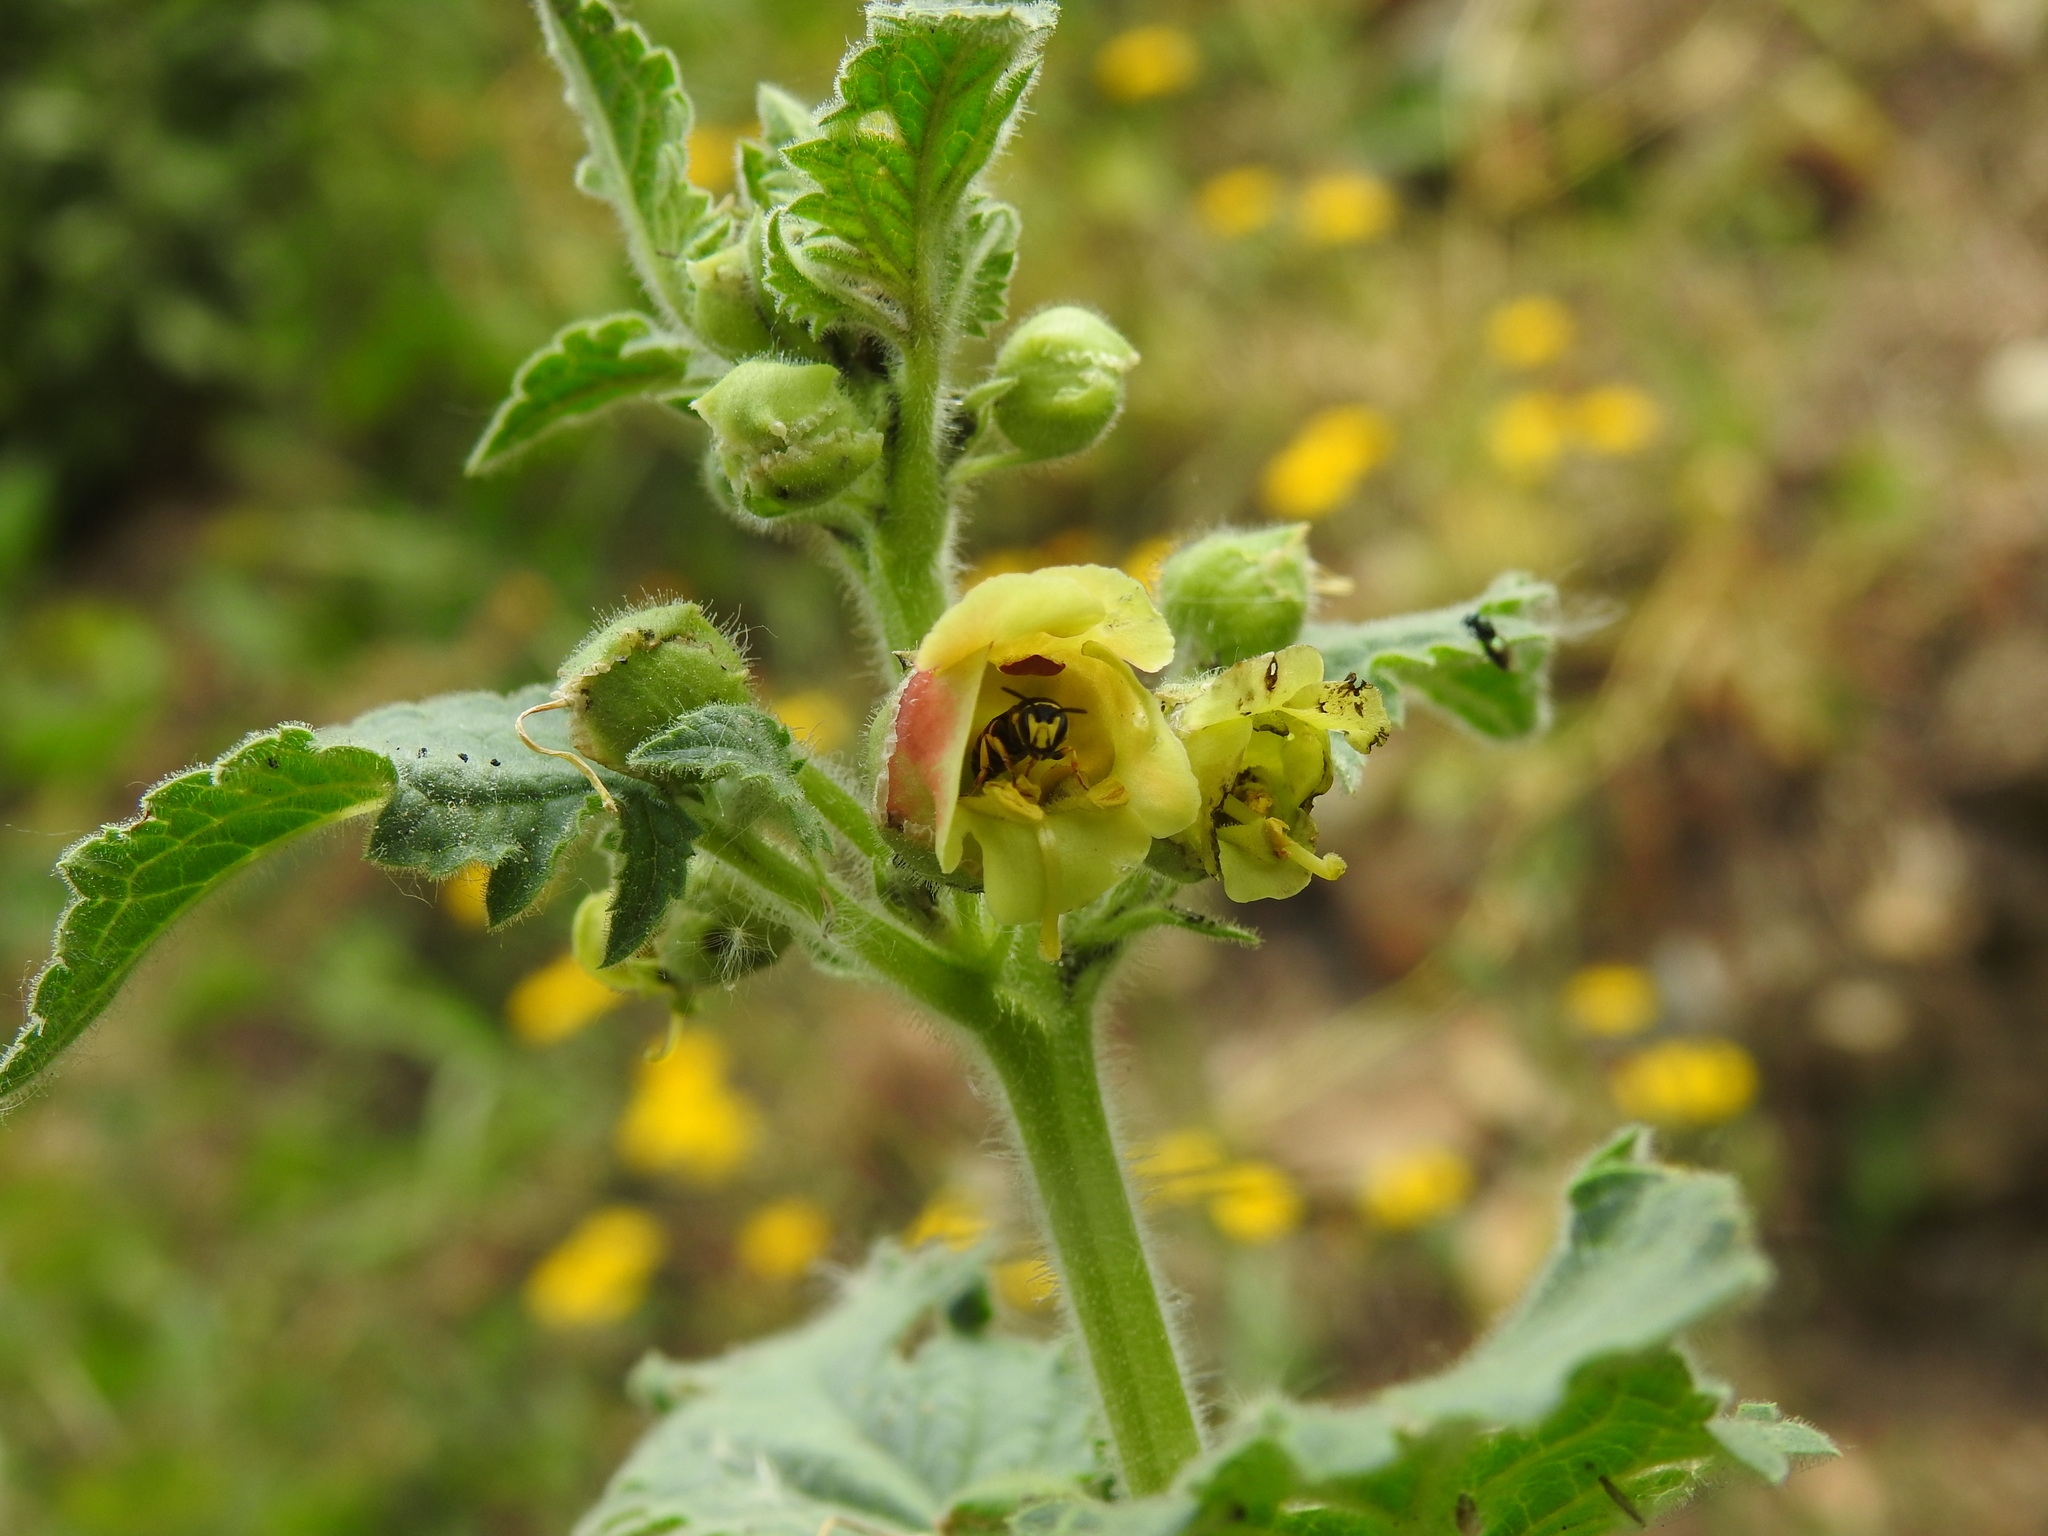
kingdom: Animalia
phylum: Arthropoda
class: Insecta
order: Hymenoptera
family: Colletidae
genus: Hylaeus
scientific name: Hylaeus pictus
